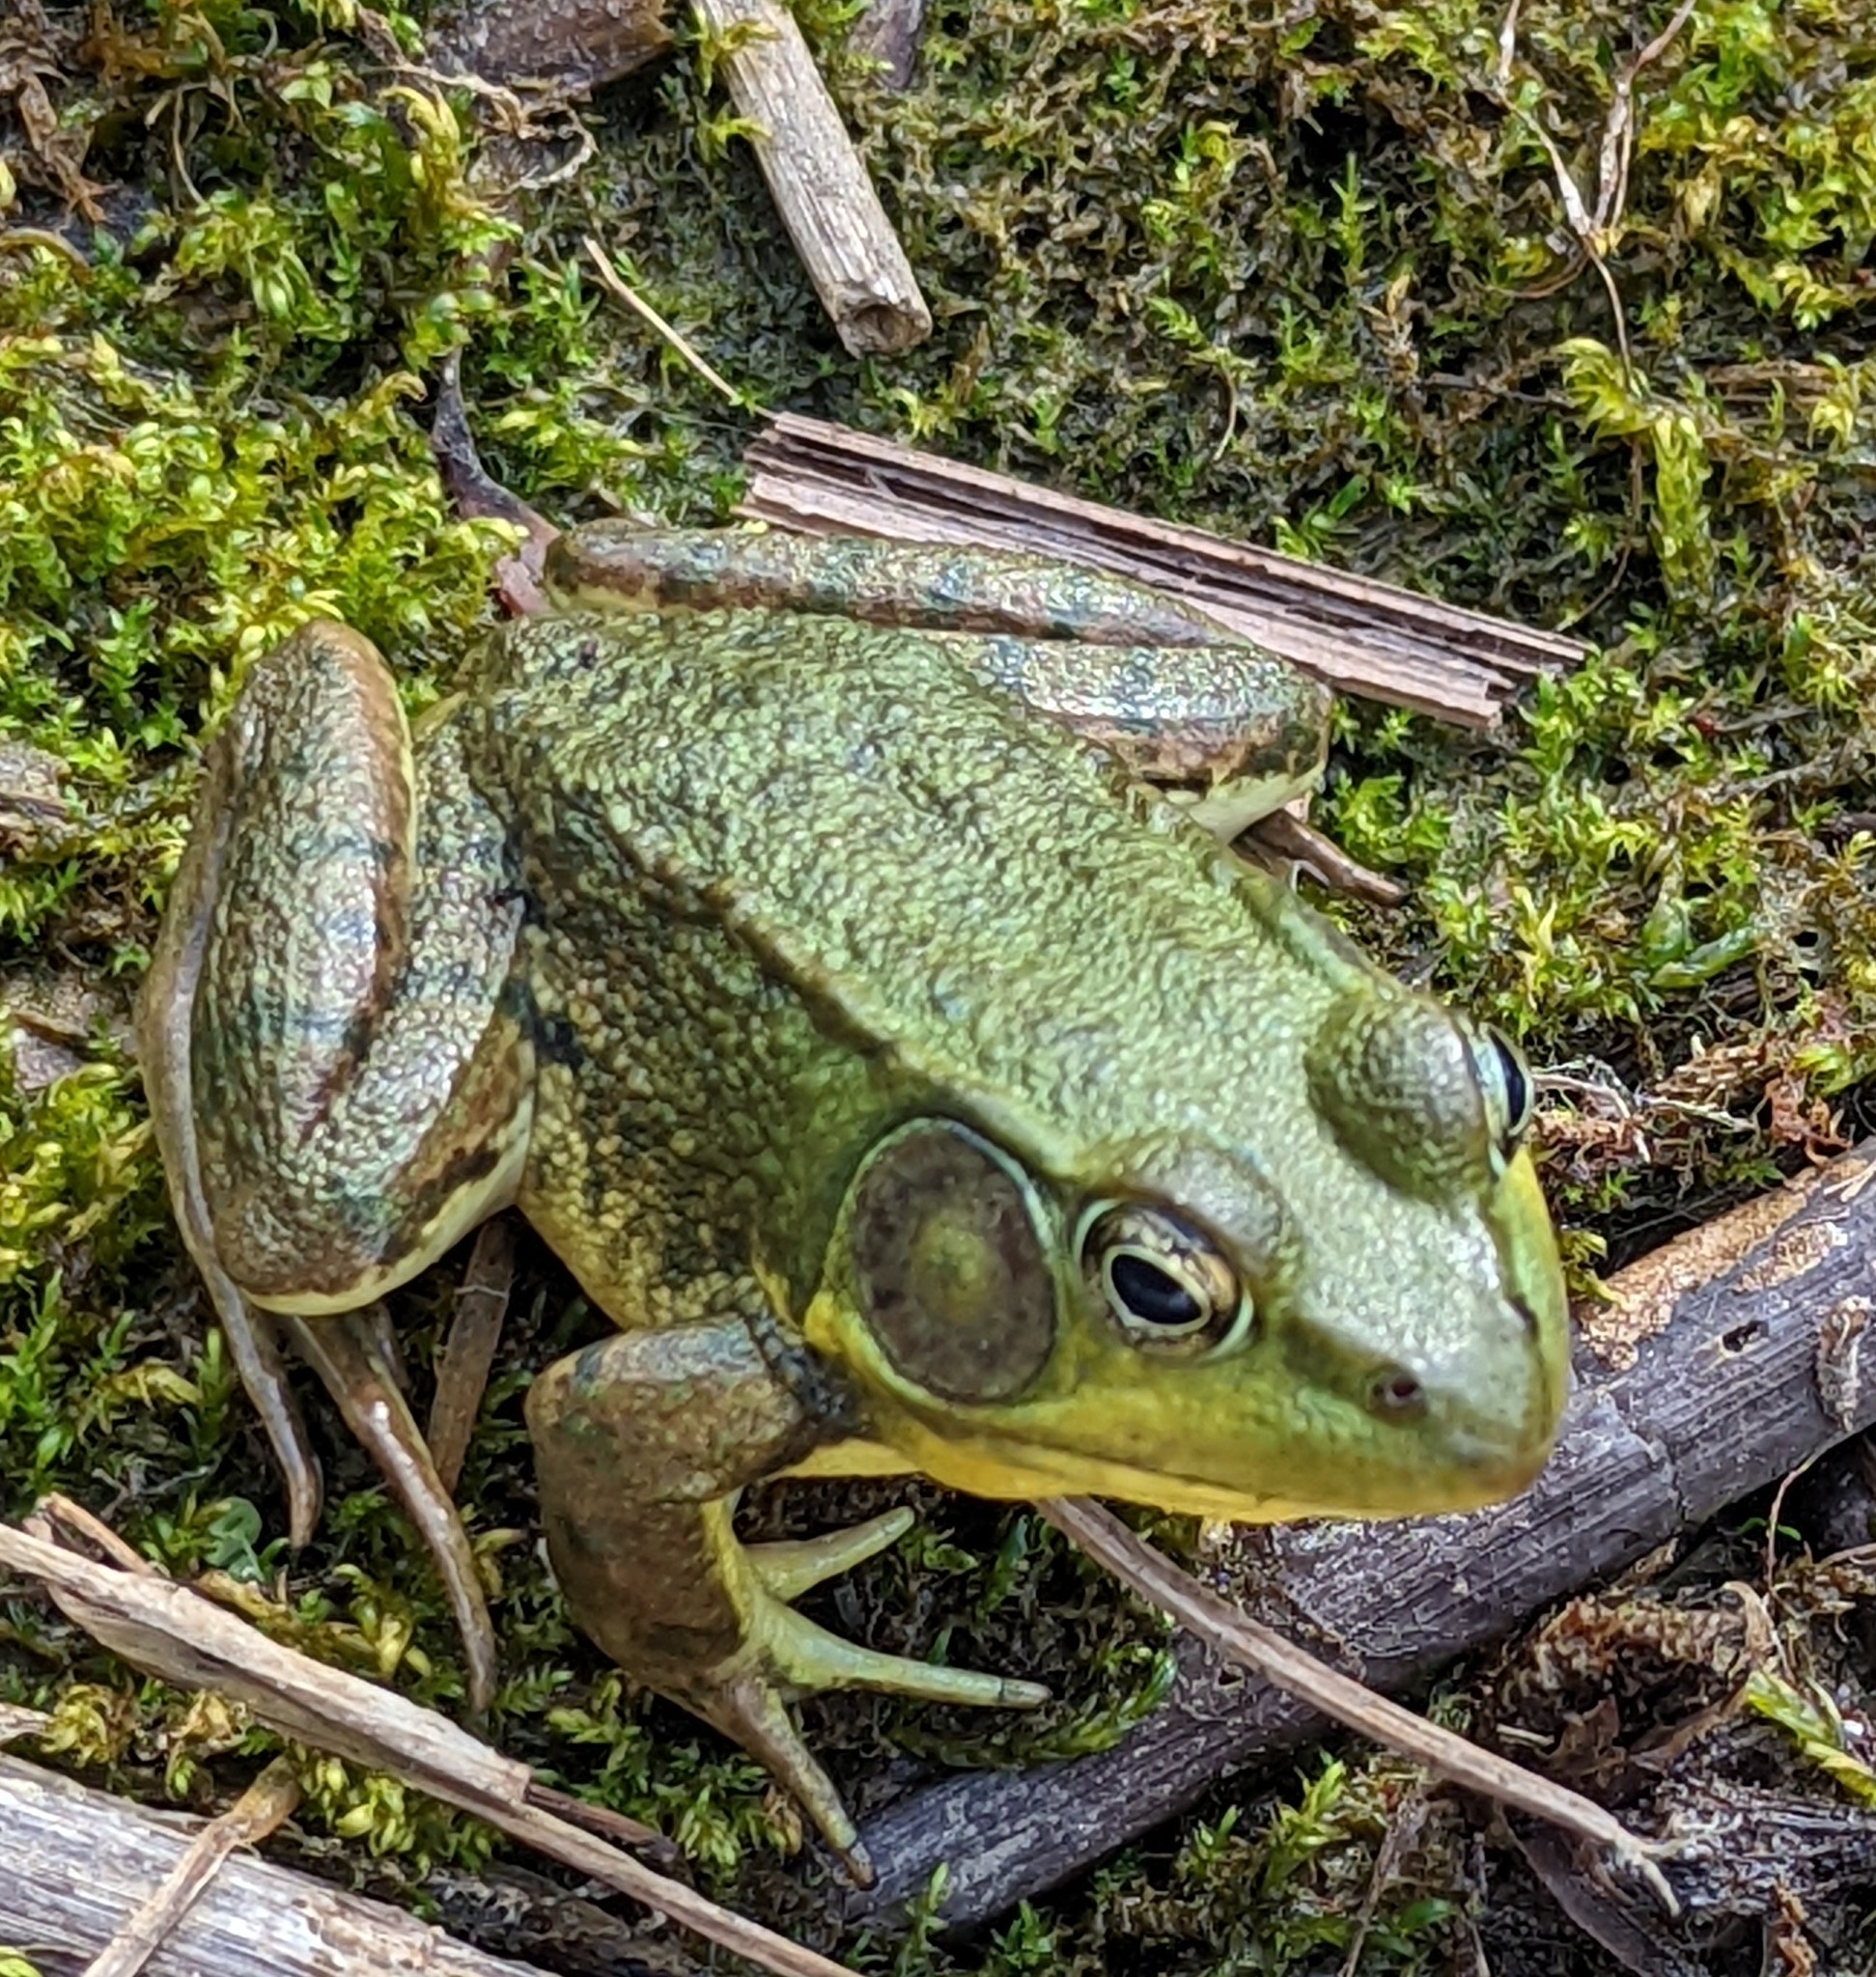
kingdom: Animalia
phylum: Chordata
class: Amphibia
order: Anura
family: Ranidae
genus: Lithobates
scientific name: Lithobates clamitans
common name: Green frog
